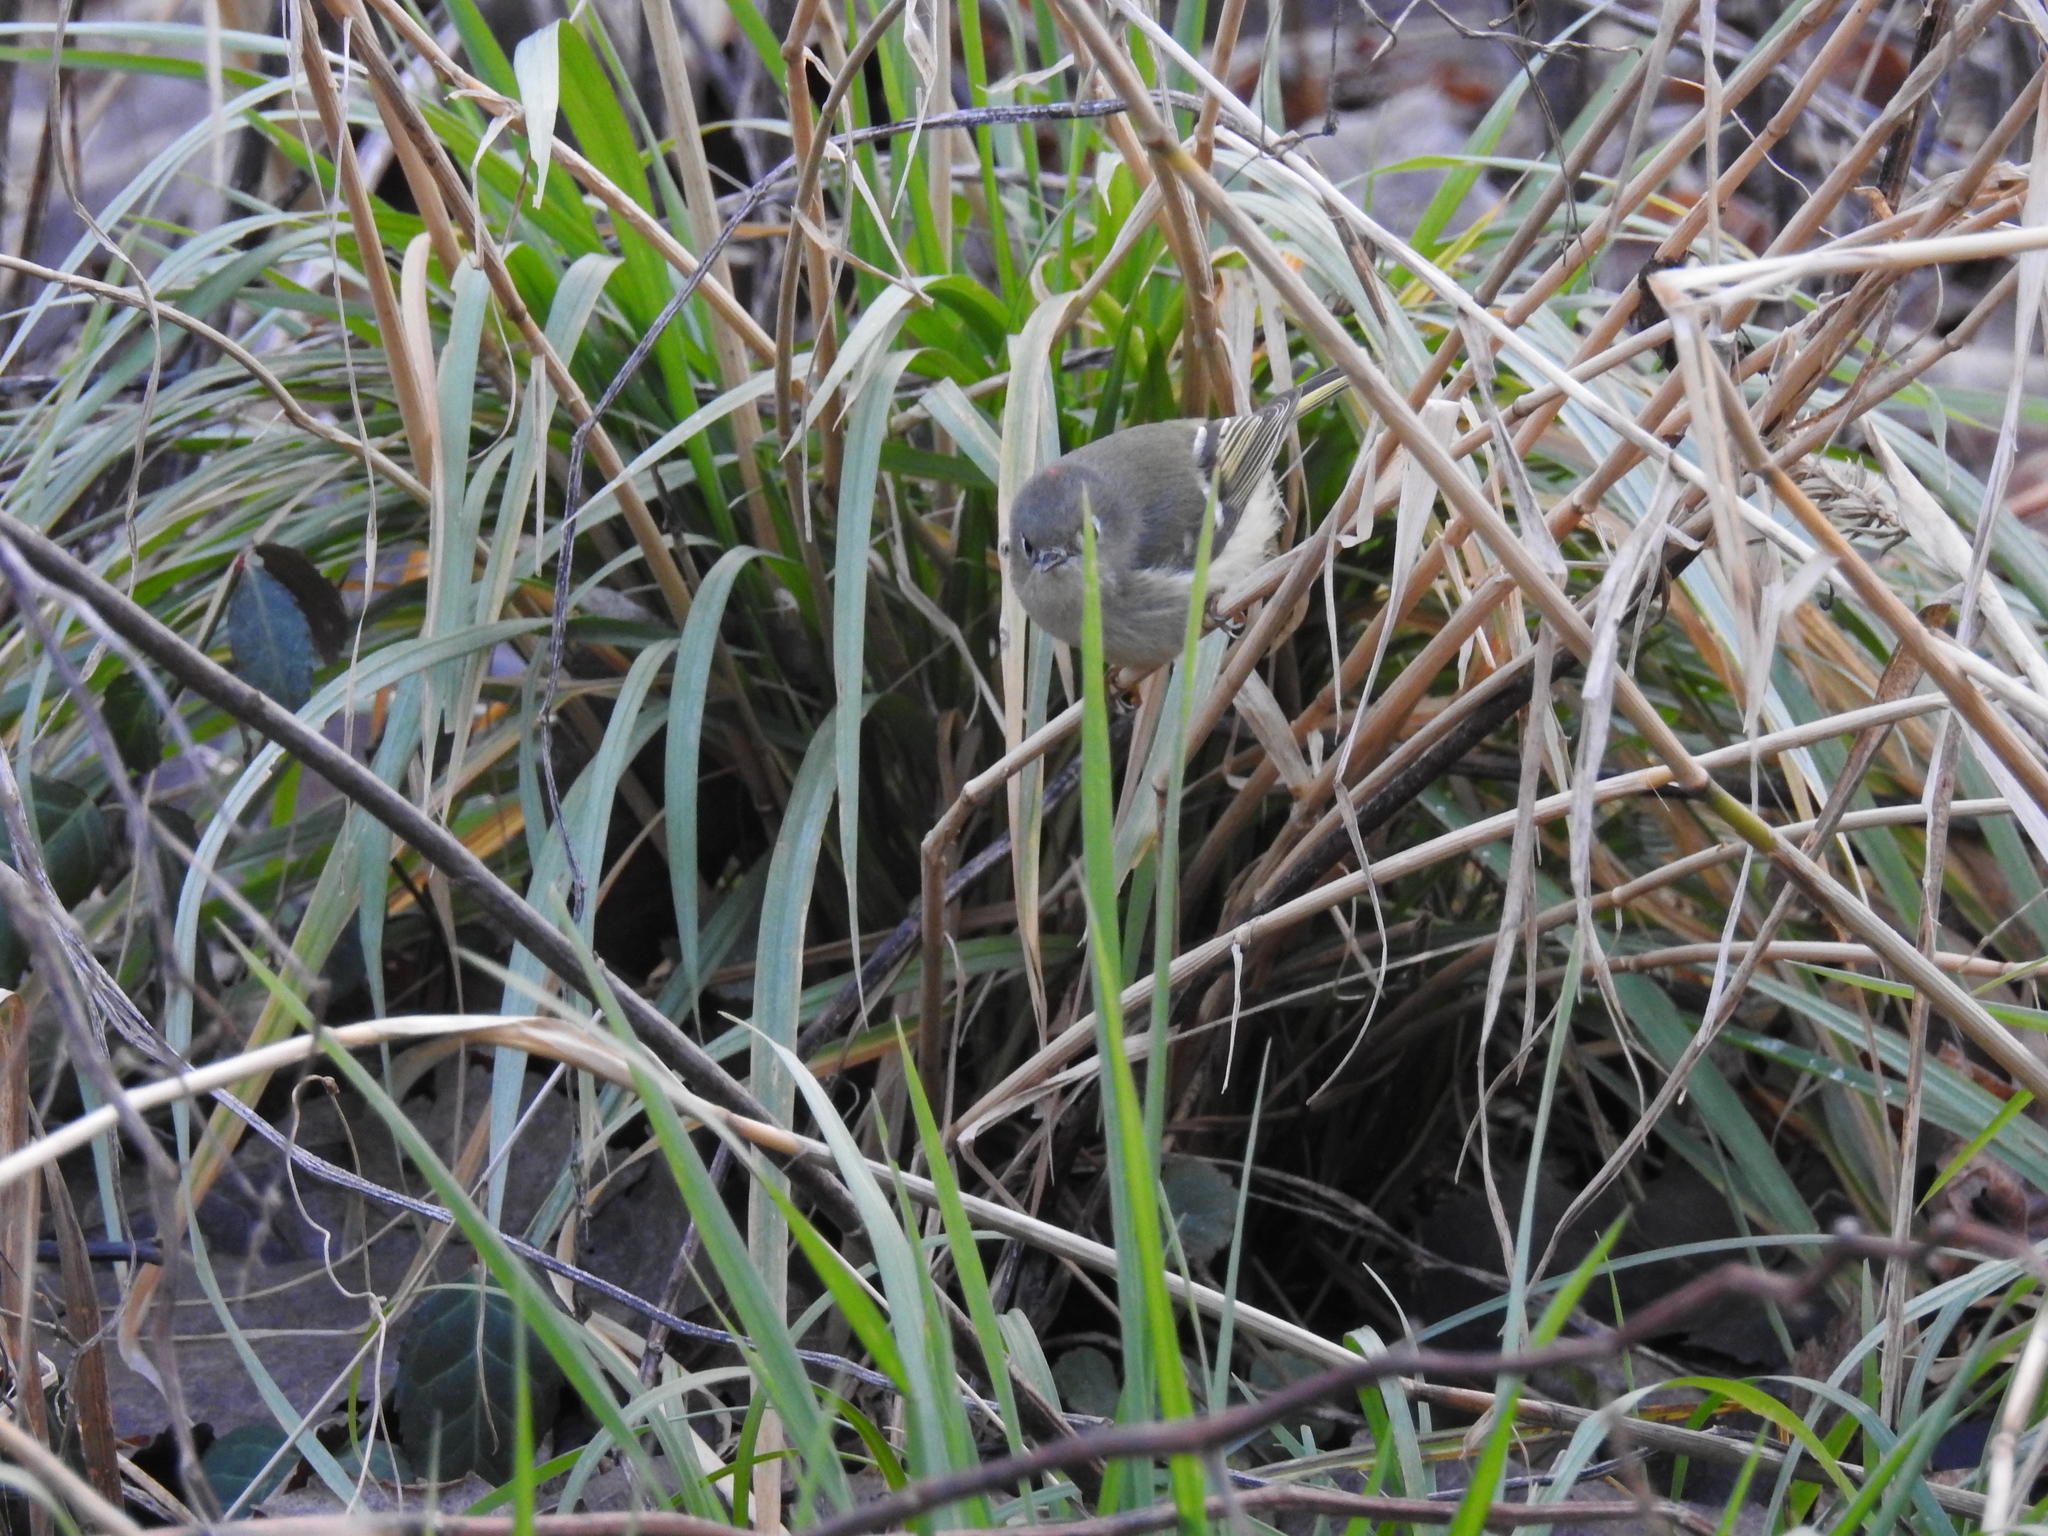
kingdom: Animalia
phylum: Chordata
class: Aves
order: Passeriformes
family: Regulidae
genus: Regulus
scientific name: Regulus calendula
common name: Ruby-crowned kinglet
